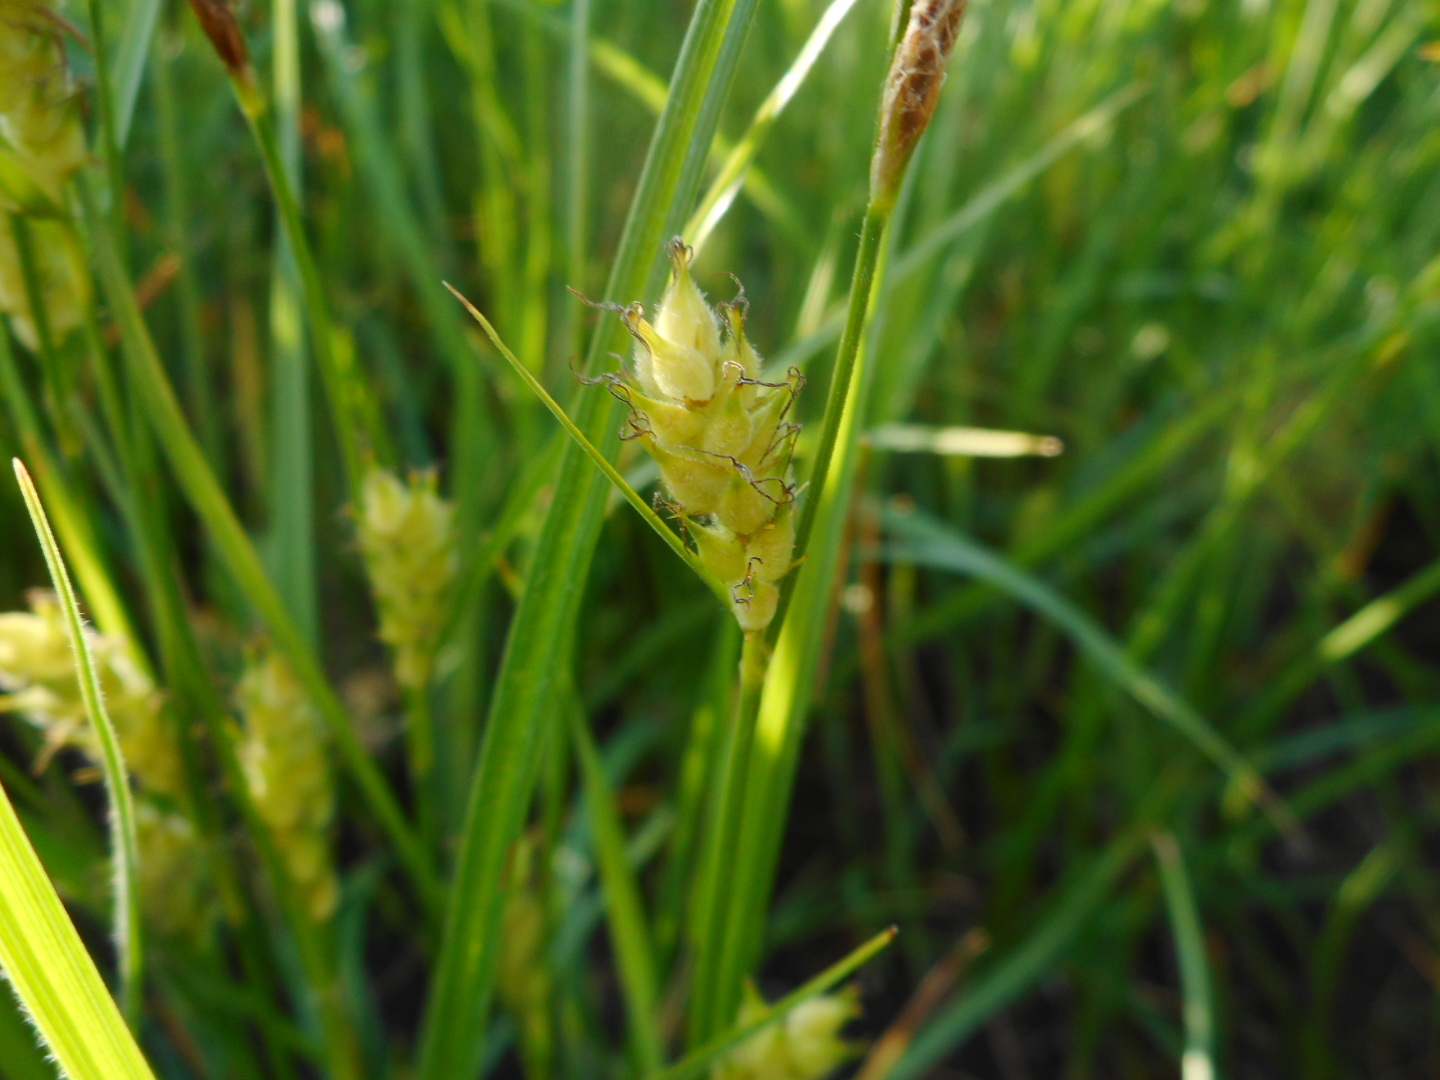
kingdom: Plantae
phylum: Tracheophyta
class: Liliopsida
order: Poales
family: Cyperaceae
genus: Carex
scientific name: Carex hirta
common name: Hairy sedge
